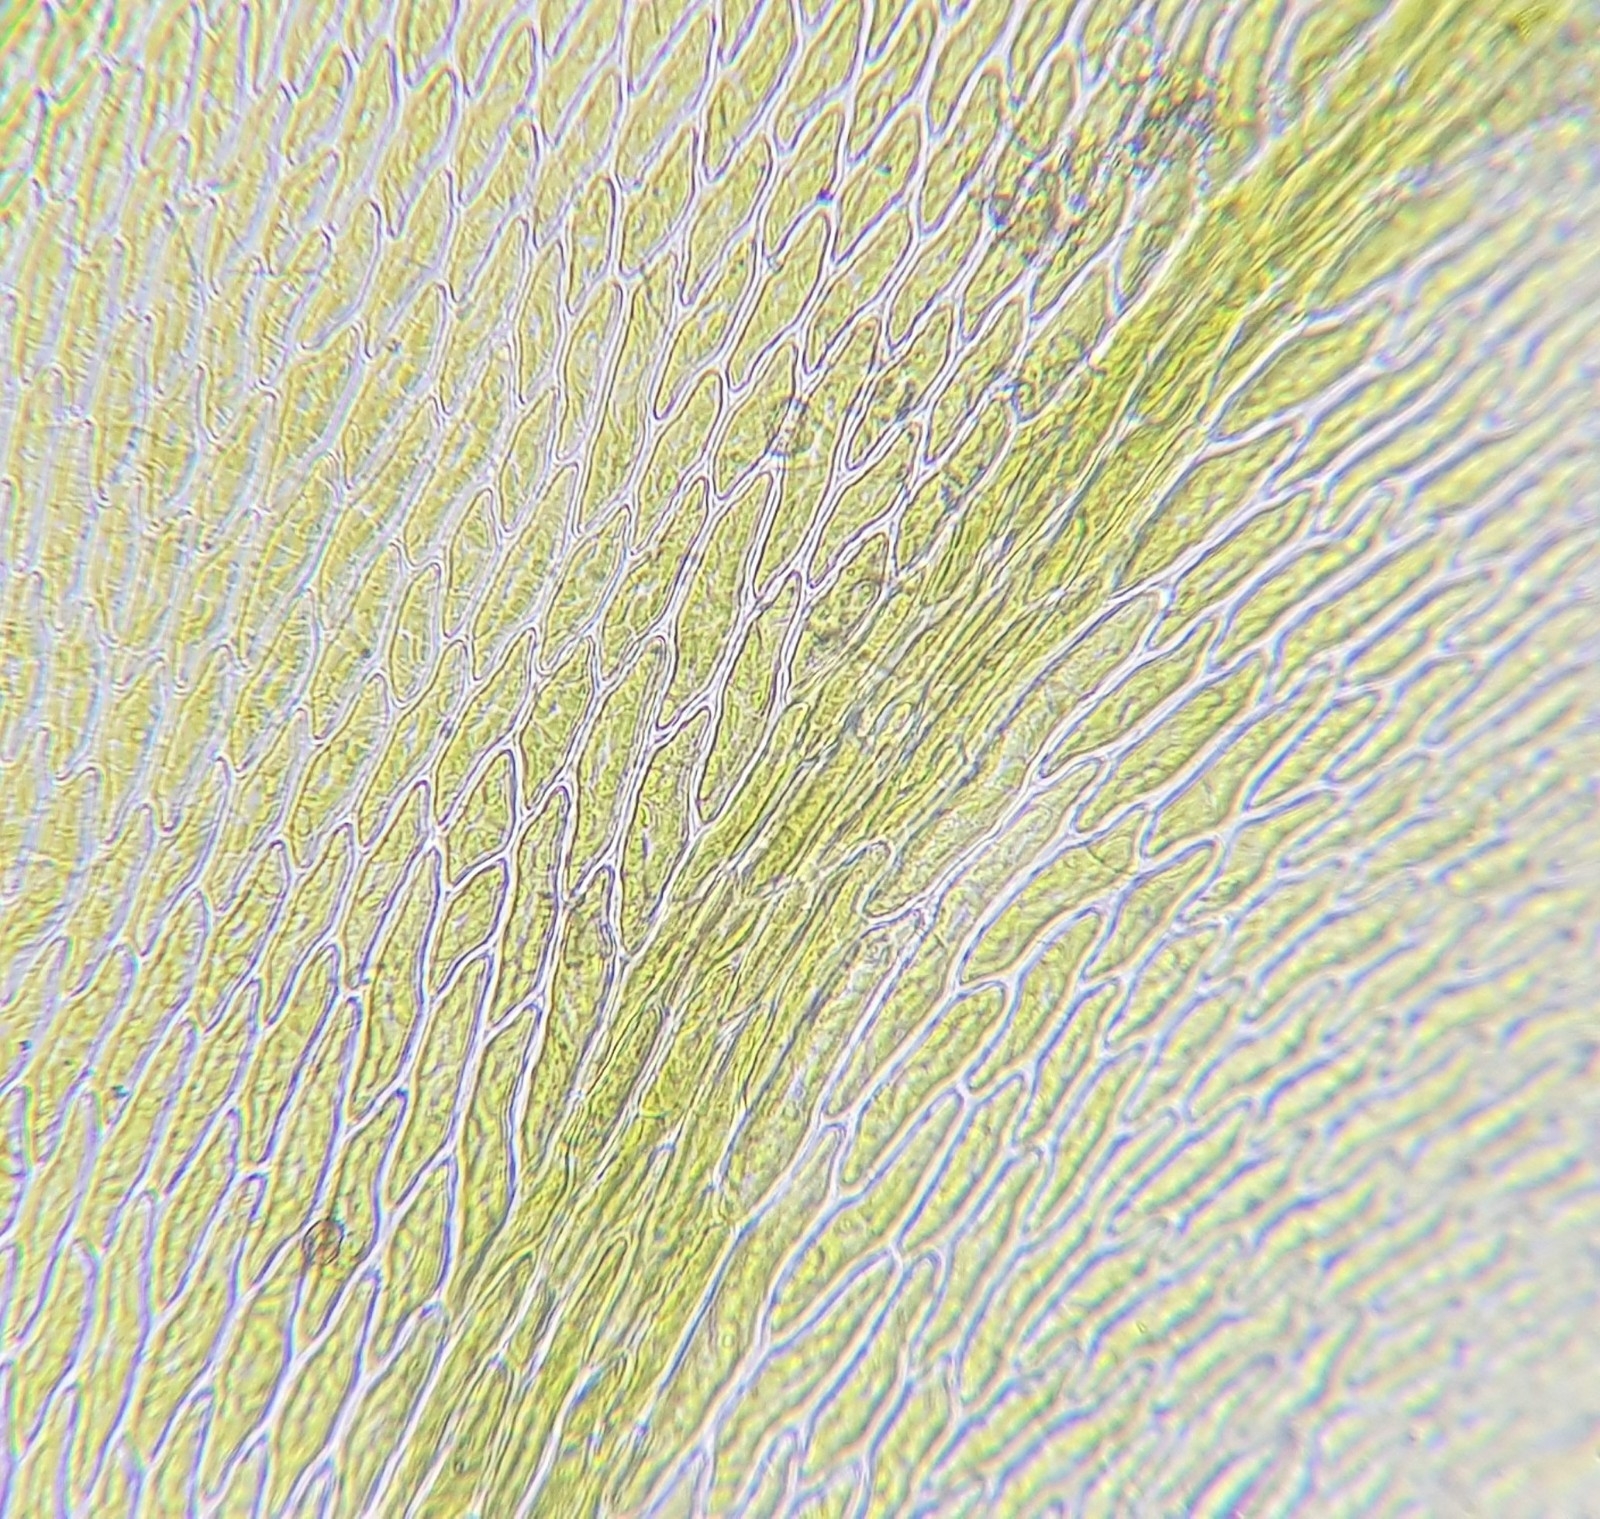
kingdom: Plantae
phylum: Bryophyta
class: Bryopsida
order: Hypnales
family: Neckeraceae
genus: Homalia
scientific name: Homalia trichomanoides
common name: Lime homalia moss
